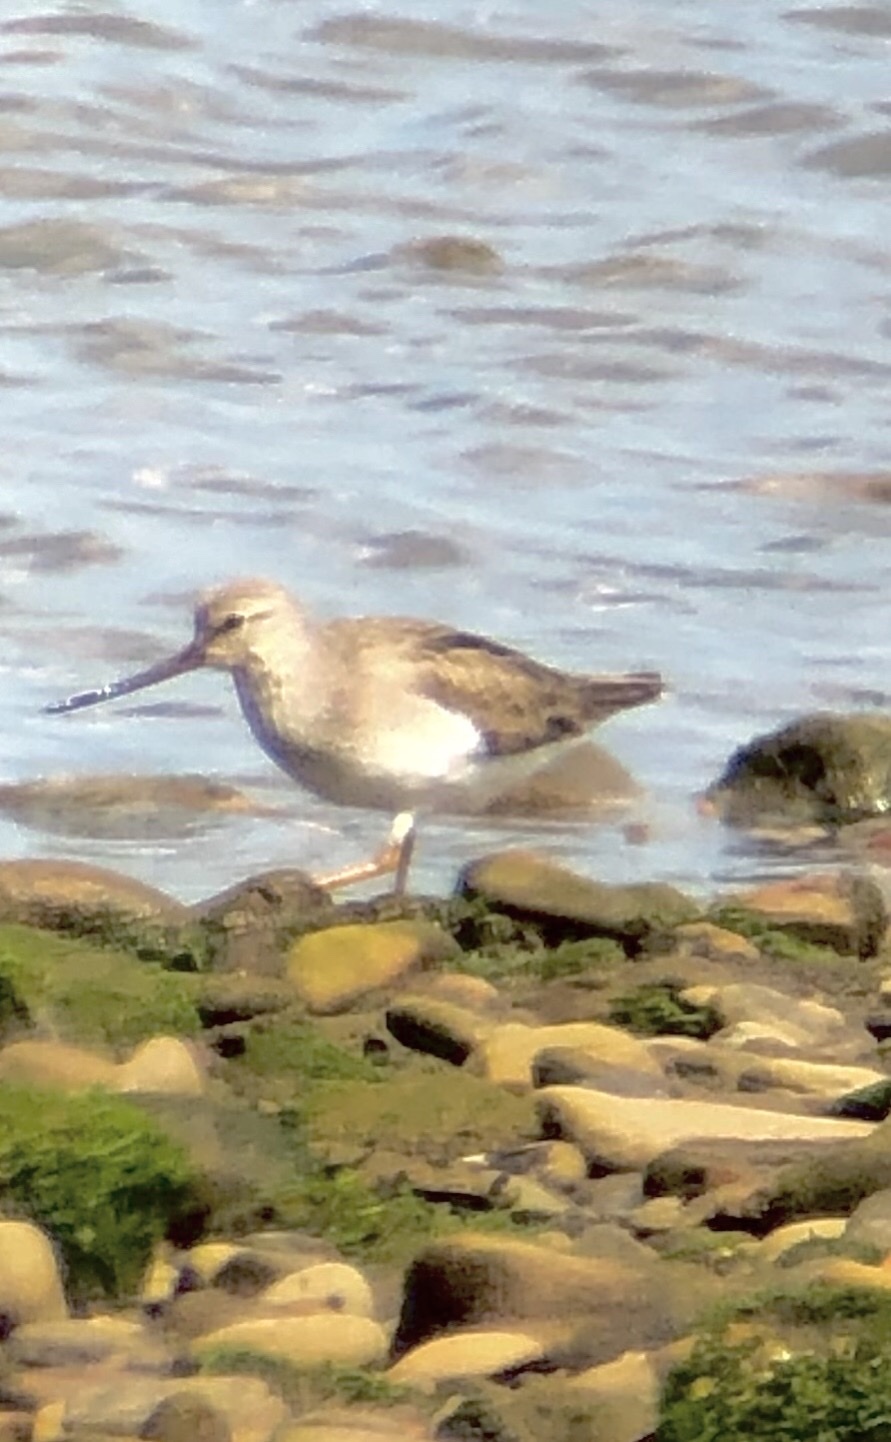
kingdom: Animalia
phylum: Chordata
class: Aves
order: Charadriiformes
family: Scolopacidae
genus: Xenus
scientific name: Xenus cinereus
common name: Terek sandpiper
